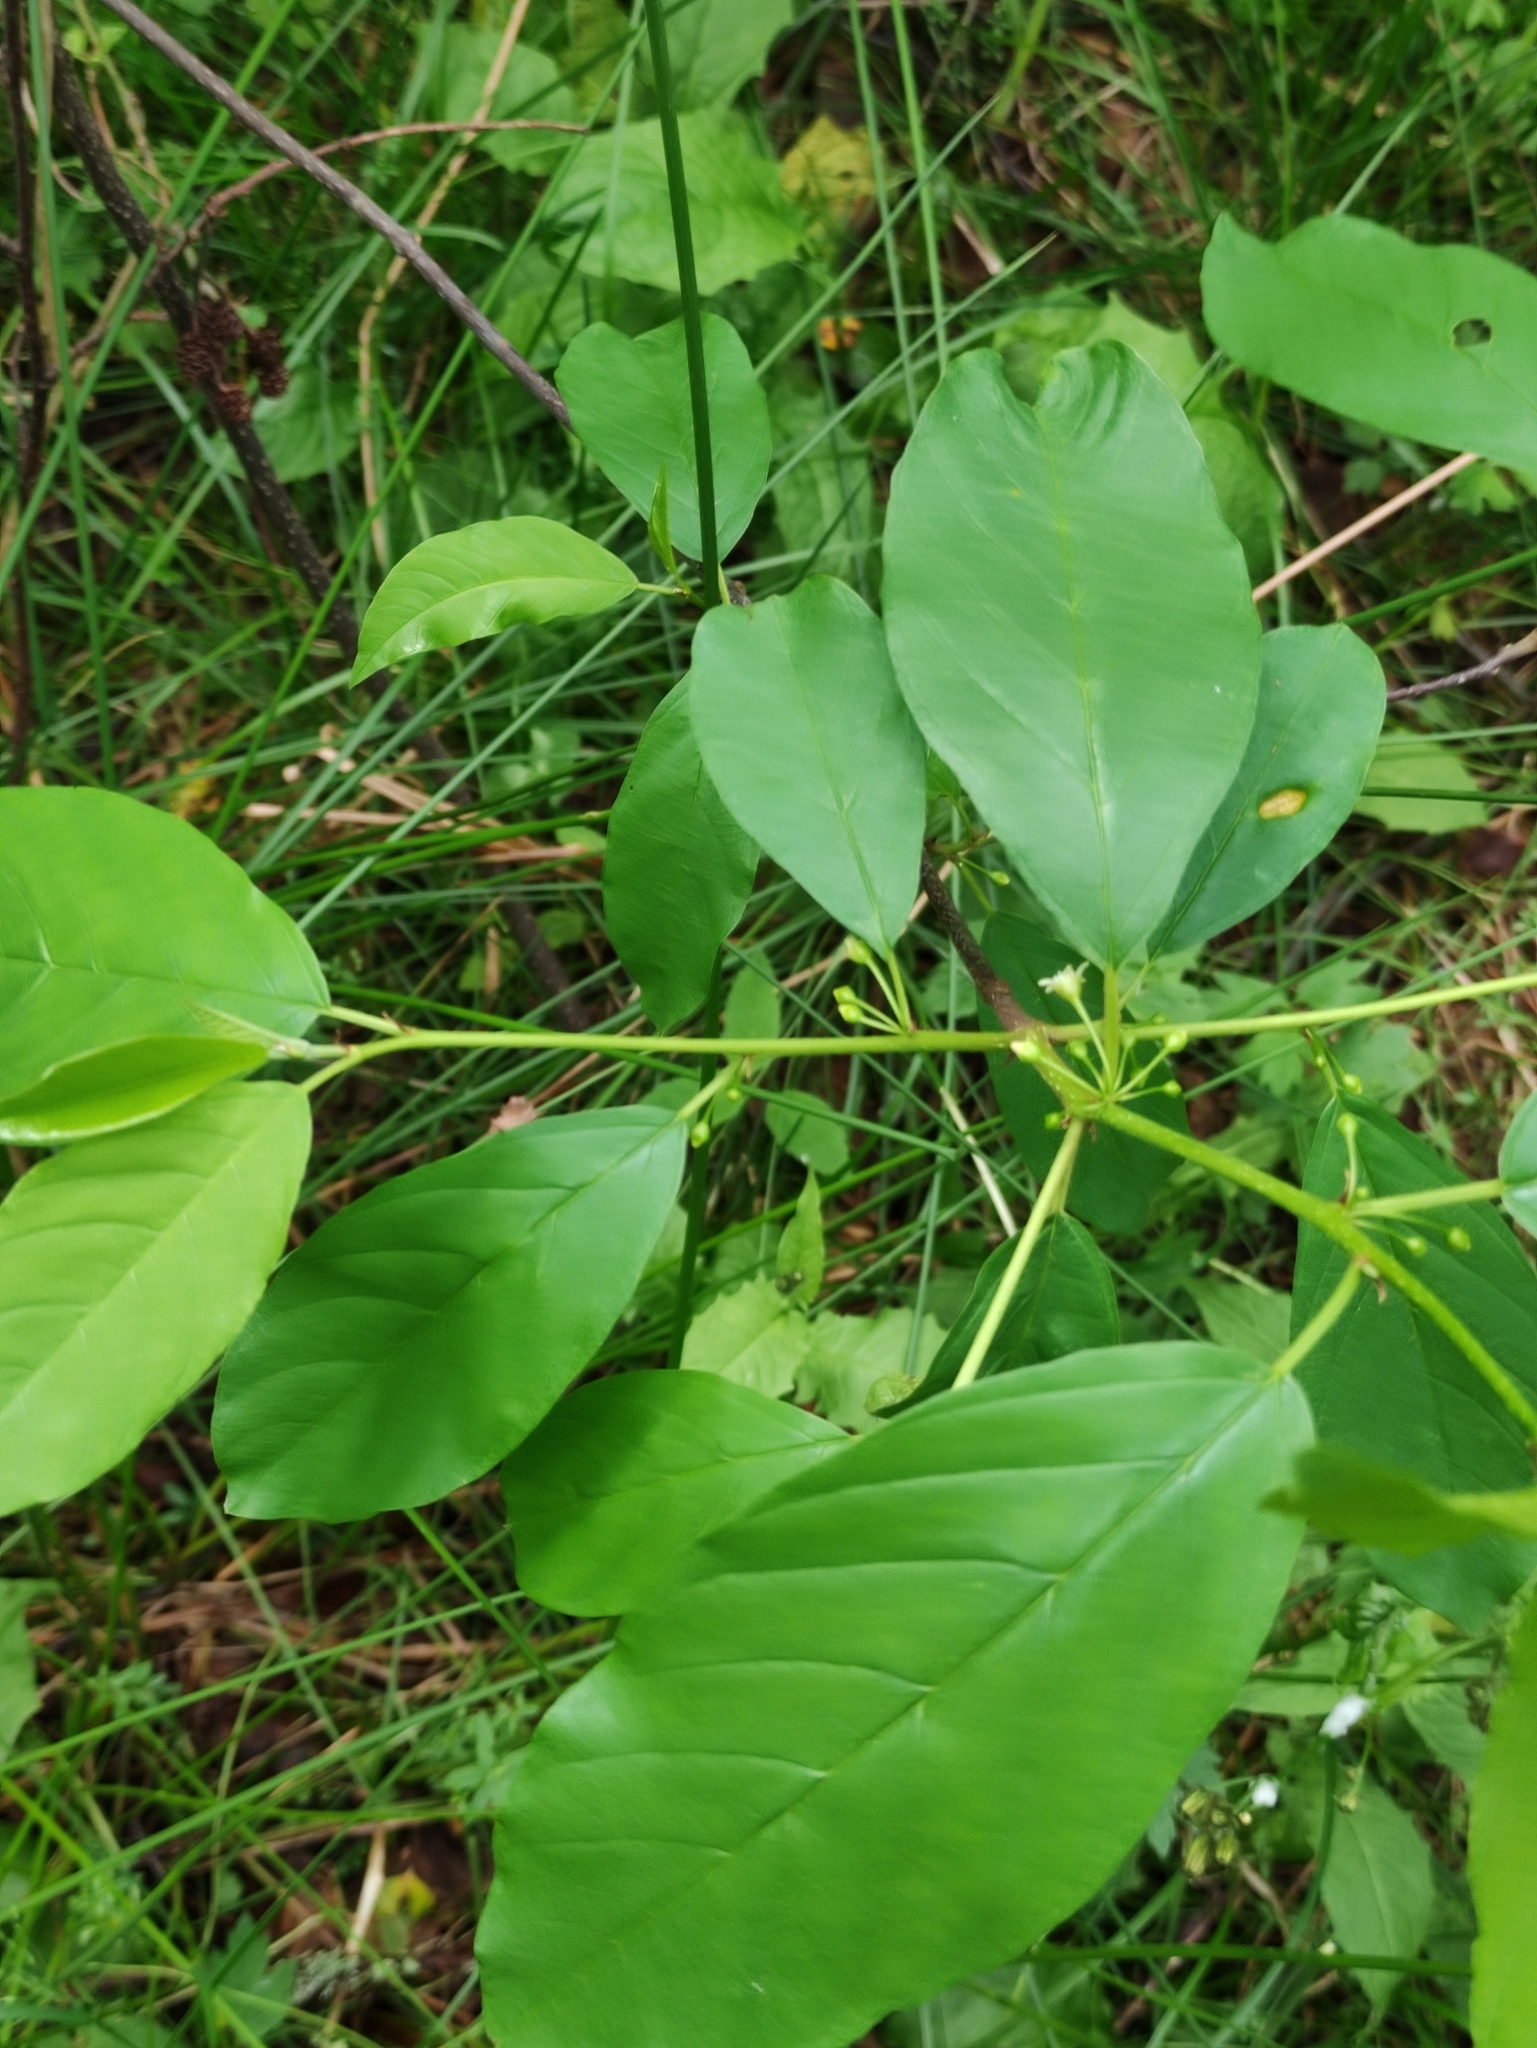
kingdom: Plantae
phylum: Tracheophyta
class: Magnoliopsida
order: Rosales
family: Rhamnaceae
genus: Frangula
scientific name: Frangula alnus
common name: Alder buckthorn
